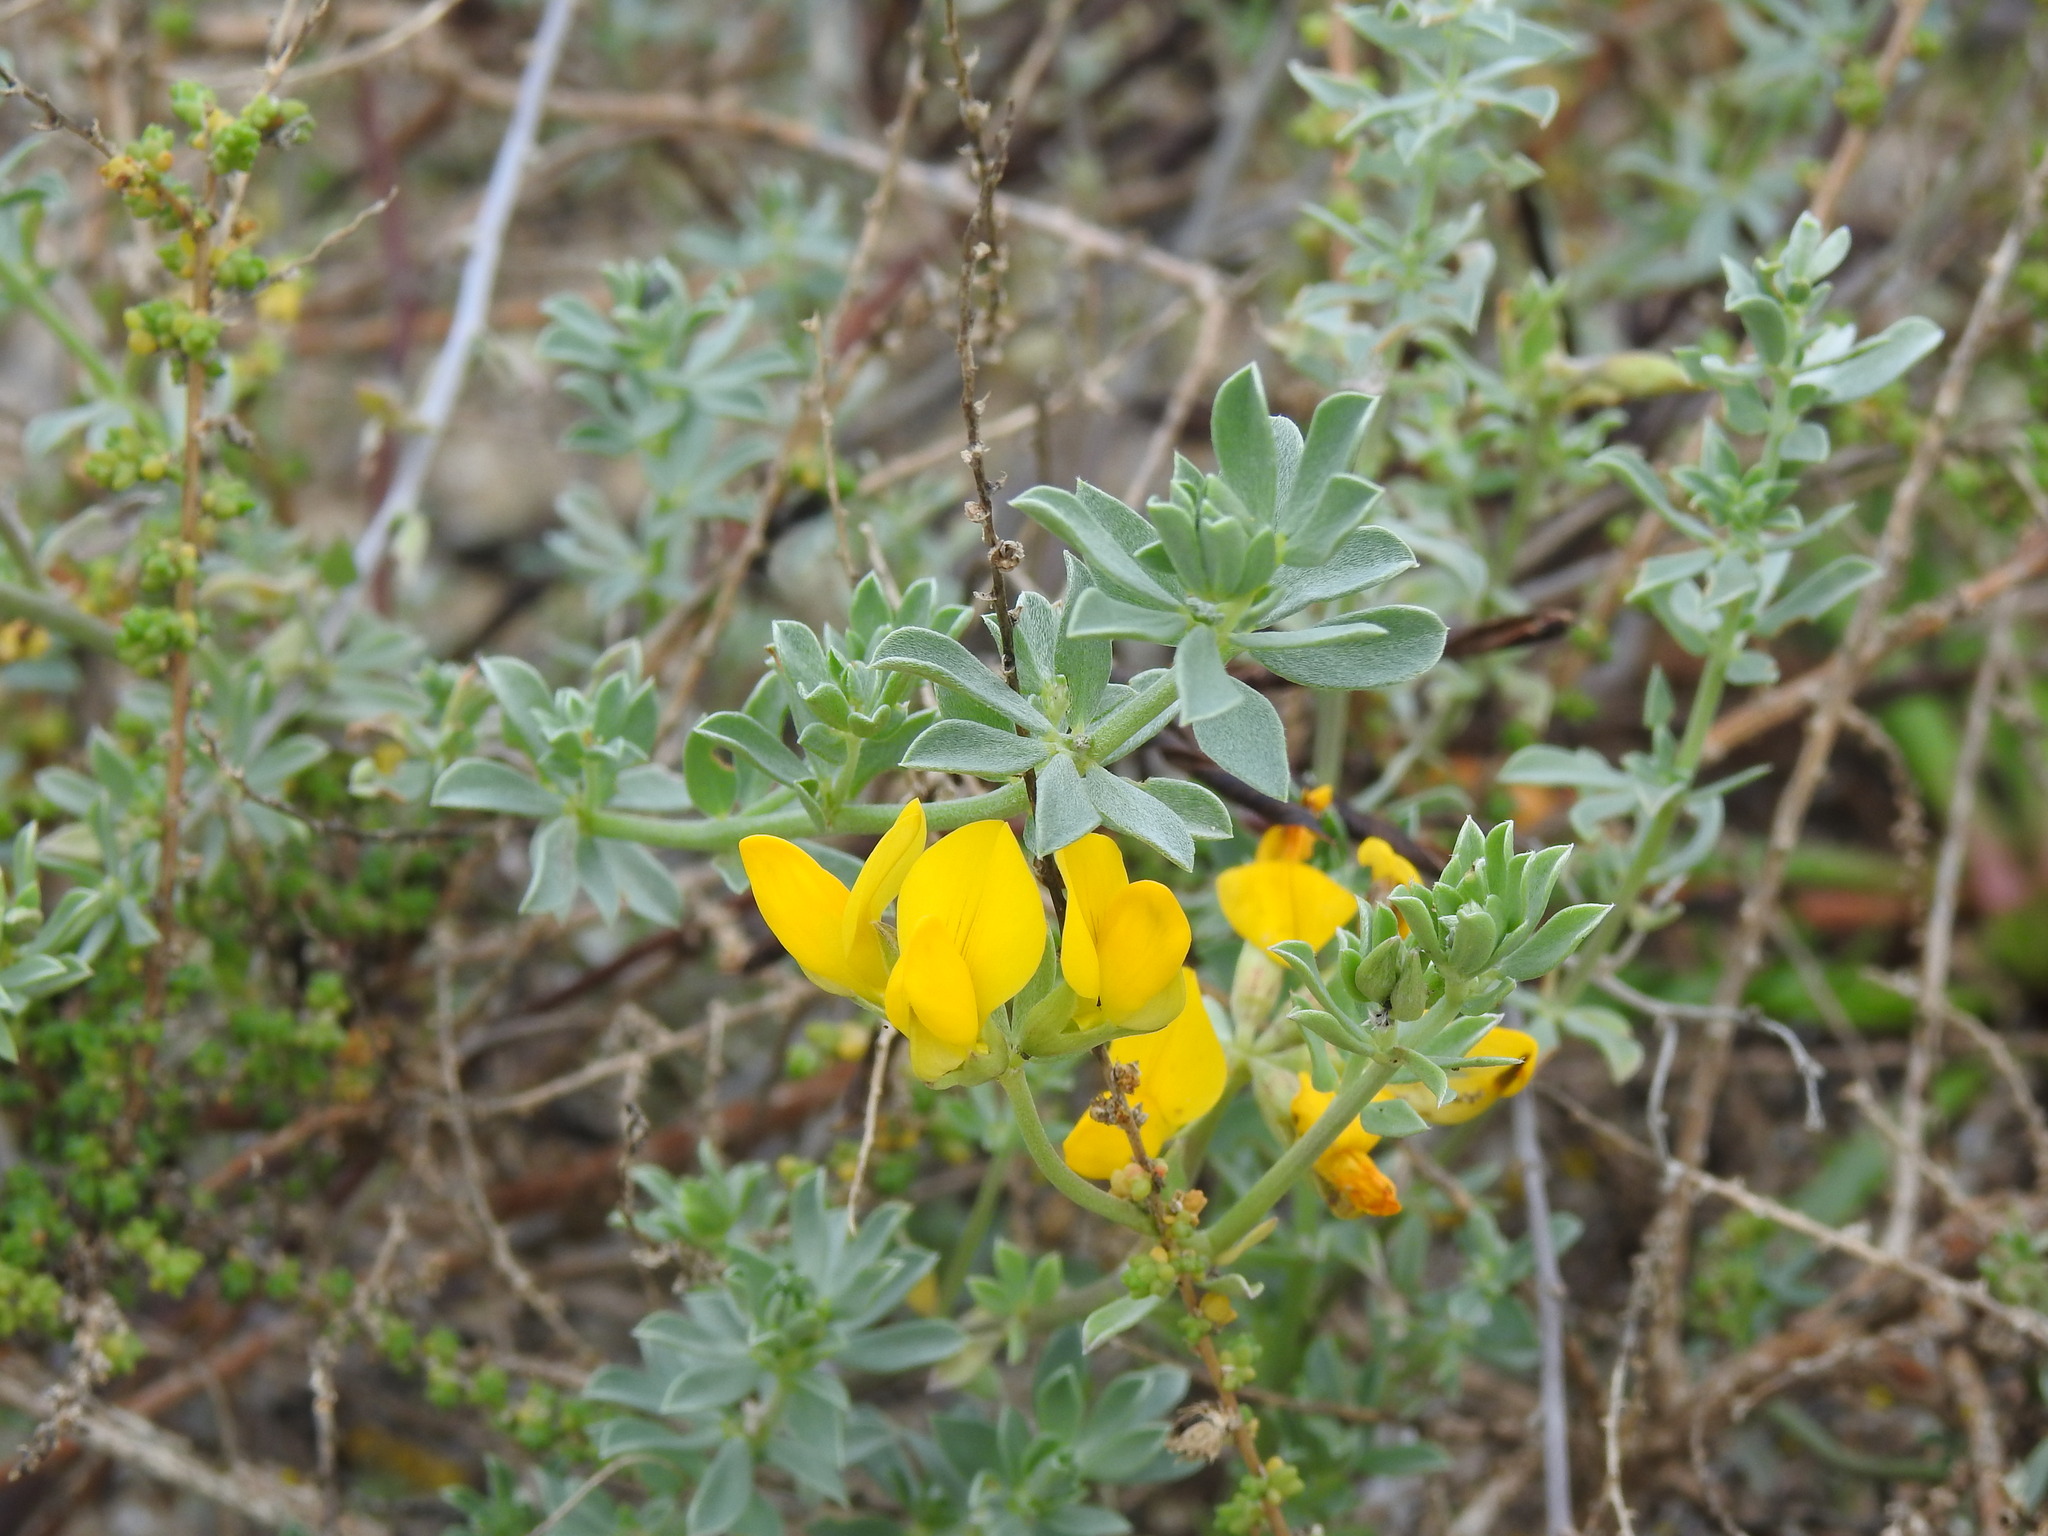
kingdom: Plantae
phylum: Tracheophyta
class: Magnoliopsida
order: Fabales
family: Fabaceae
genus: Lotus
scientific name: Lotus creticus
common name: Cretan bird's-foot trefoil
